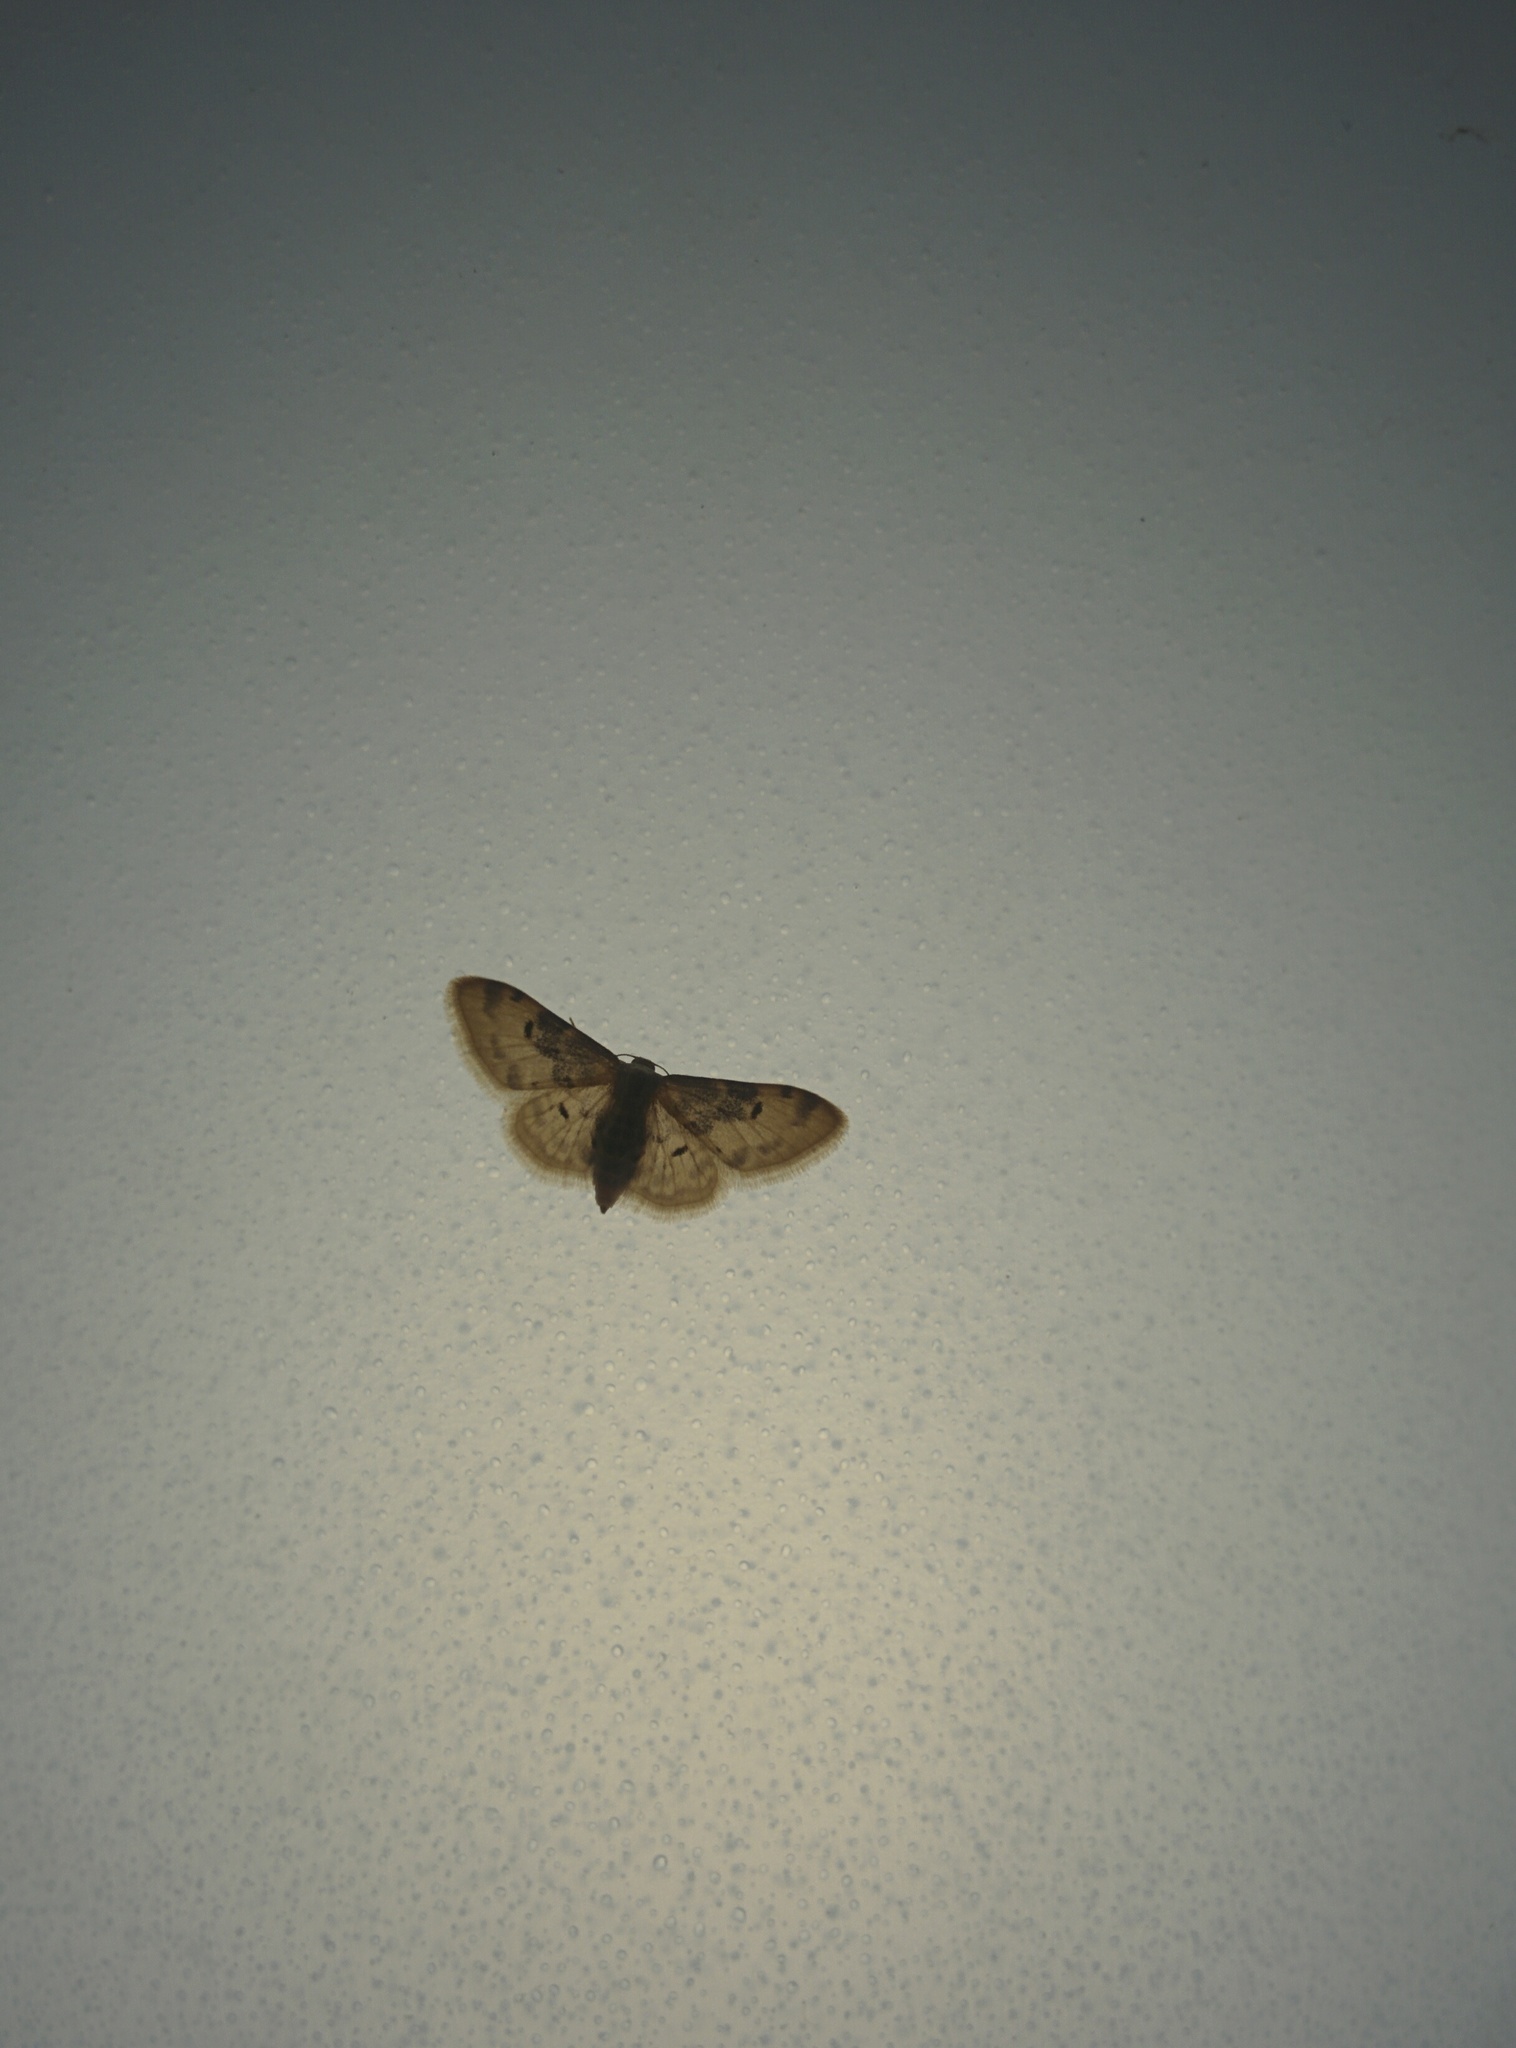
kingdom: Animalia
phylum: Arthropoda
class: Insecta
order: Lepidoptera
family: Geometridae
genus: Idaea
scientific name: Idaea filicata
